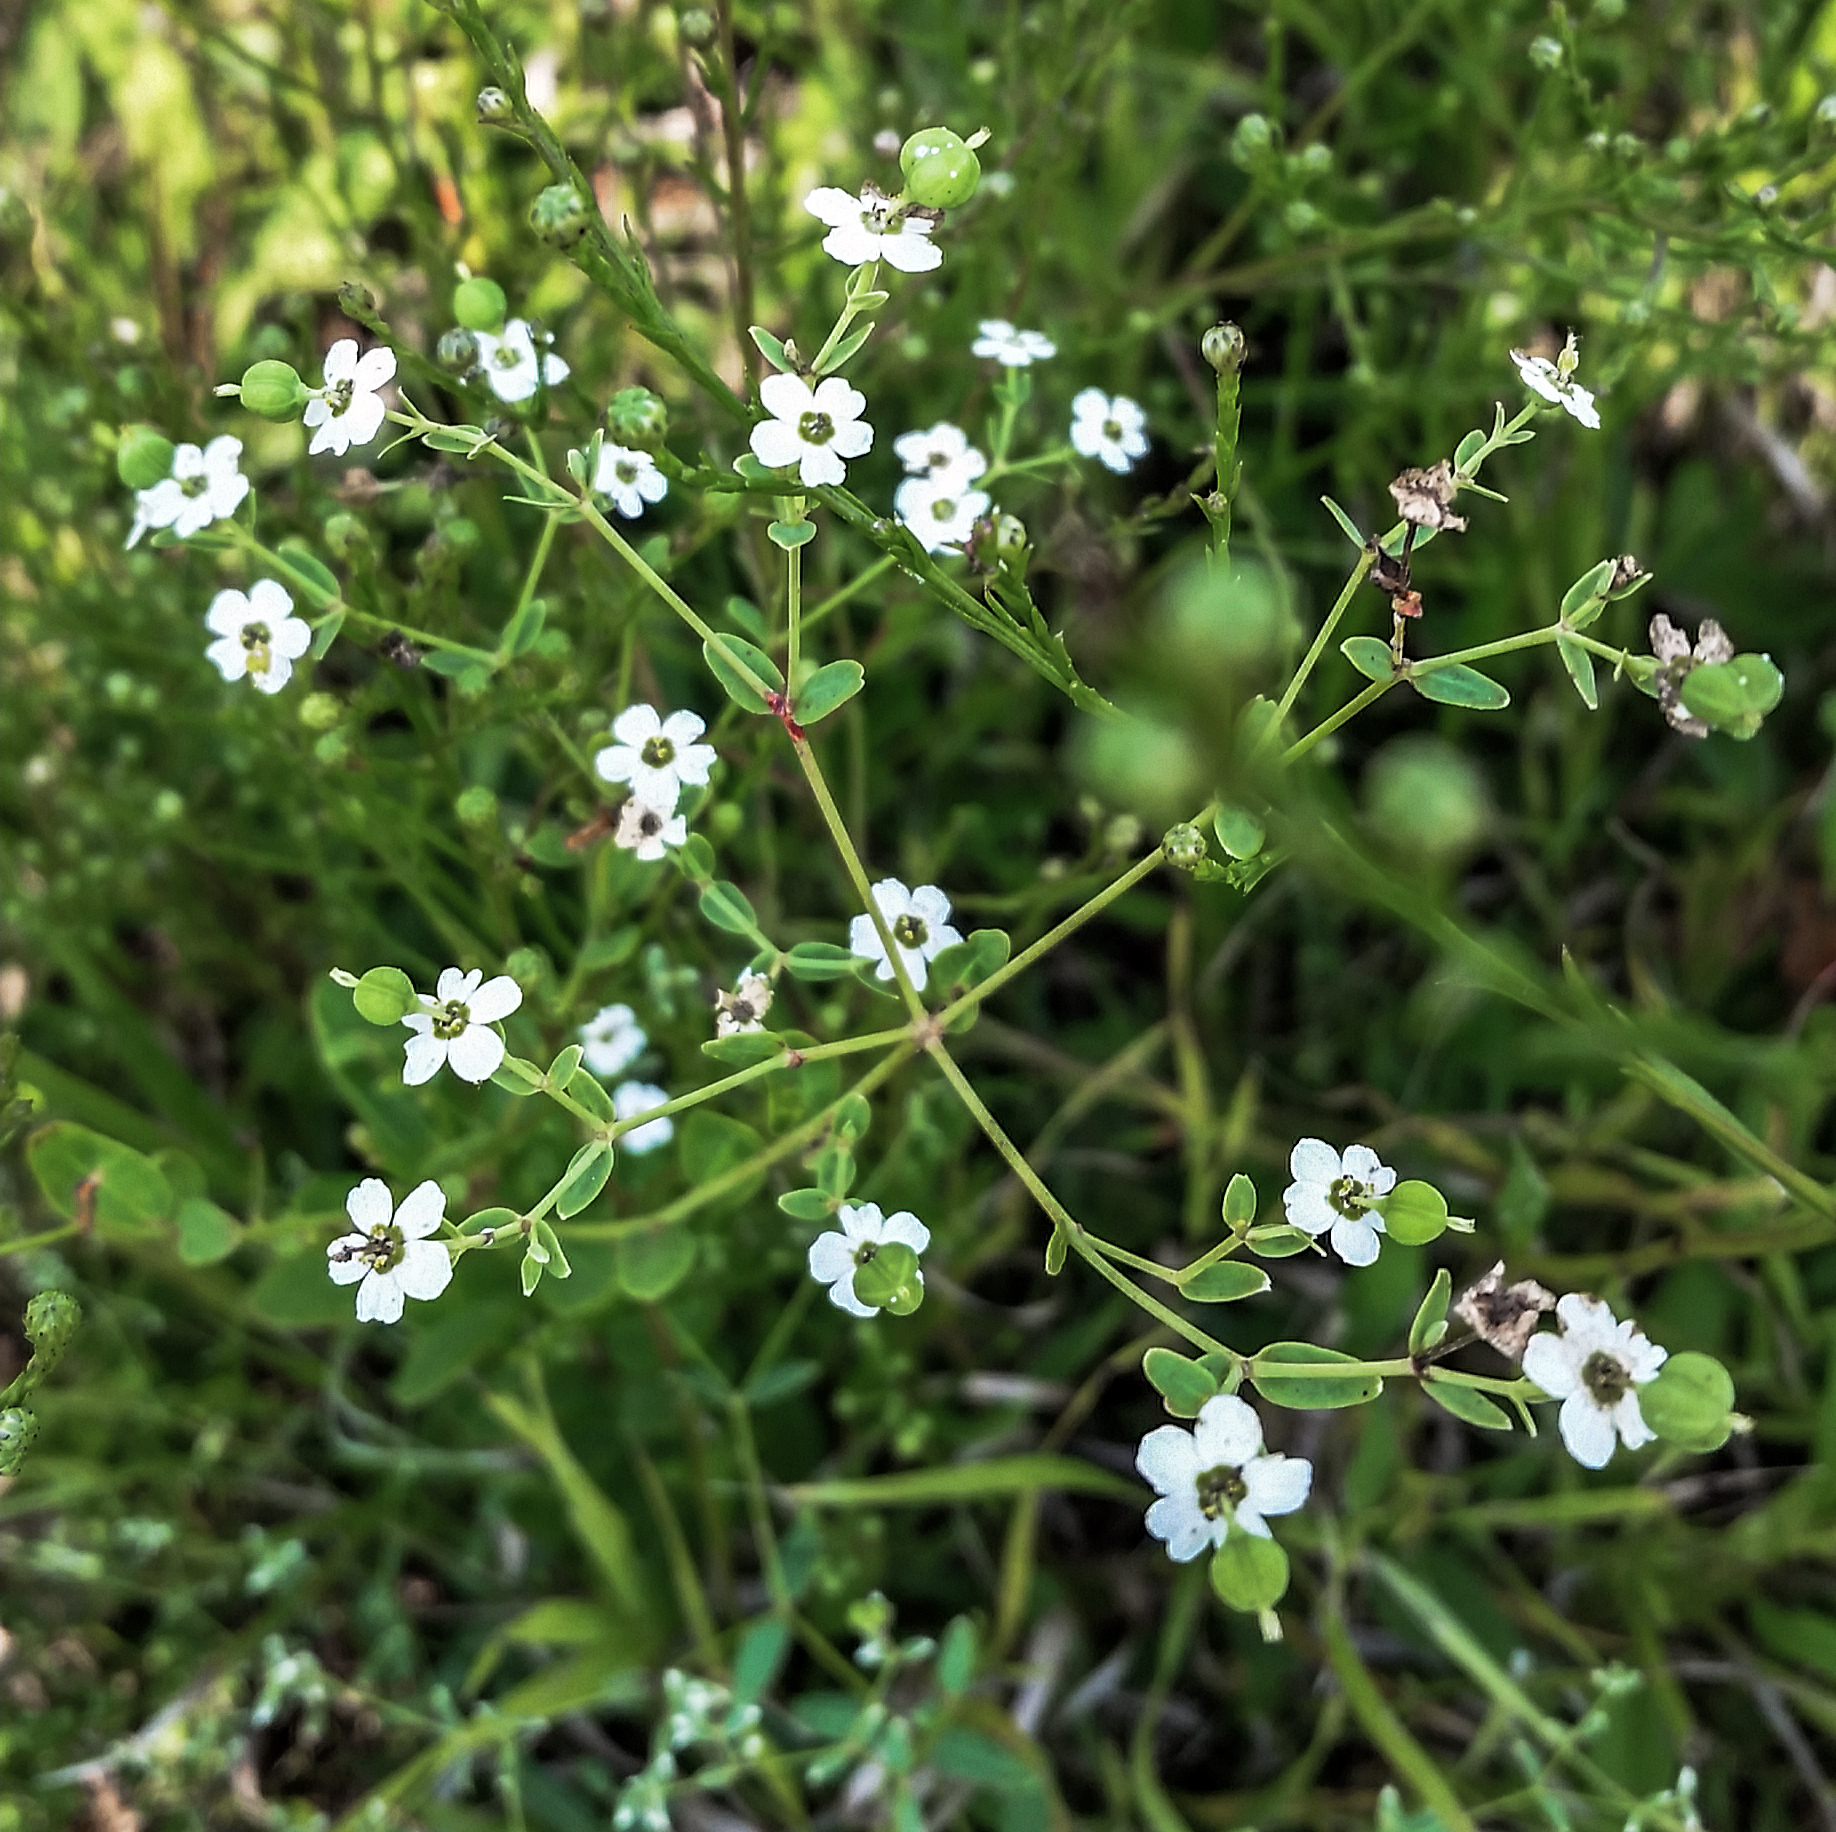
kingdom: Plantae
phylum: Tracheophyta
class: Magnoliopsida
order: Malpighiales
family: Euphorbiaceae
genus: Euphorbia
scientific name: Euphorbia corollata
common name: Flowering spurge
